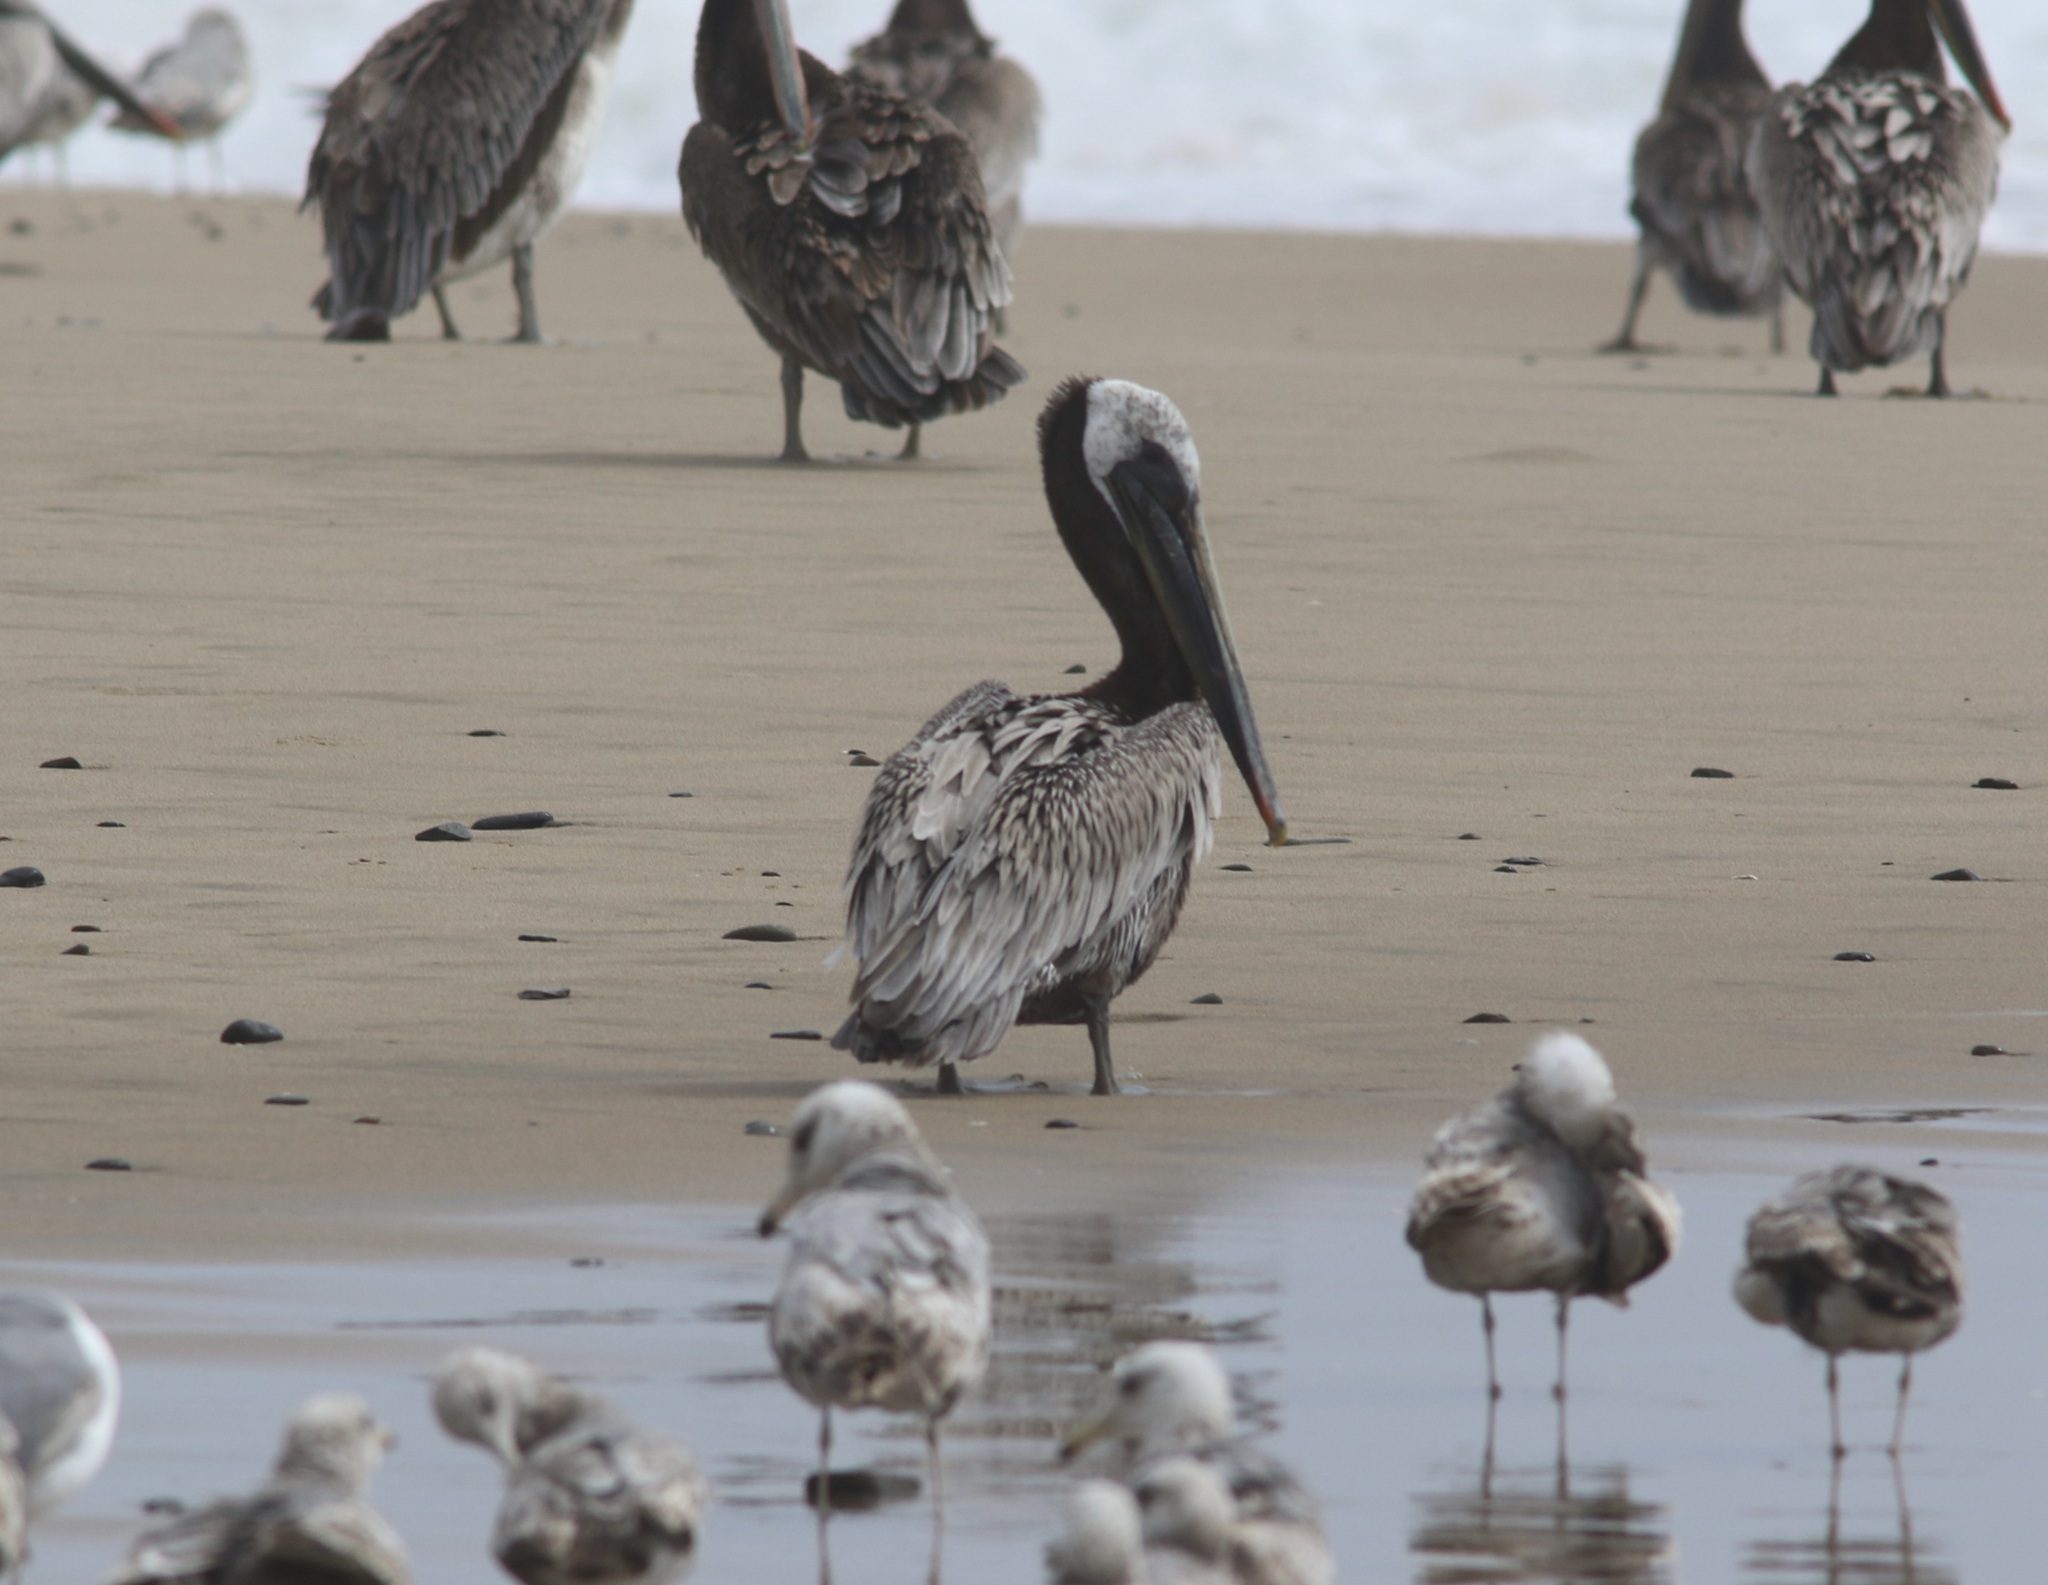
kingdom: Animalia
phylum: Chordata
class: Aves
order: Pelecaniformes
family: Pelecanidae
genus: Pelecanus
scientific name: Pelecanus occidentalis
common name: Brown pelican
